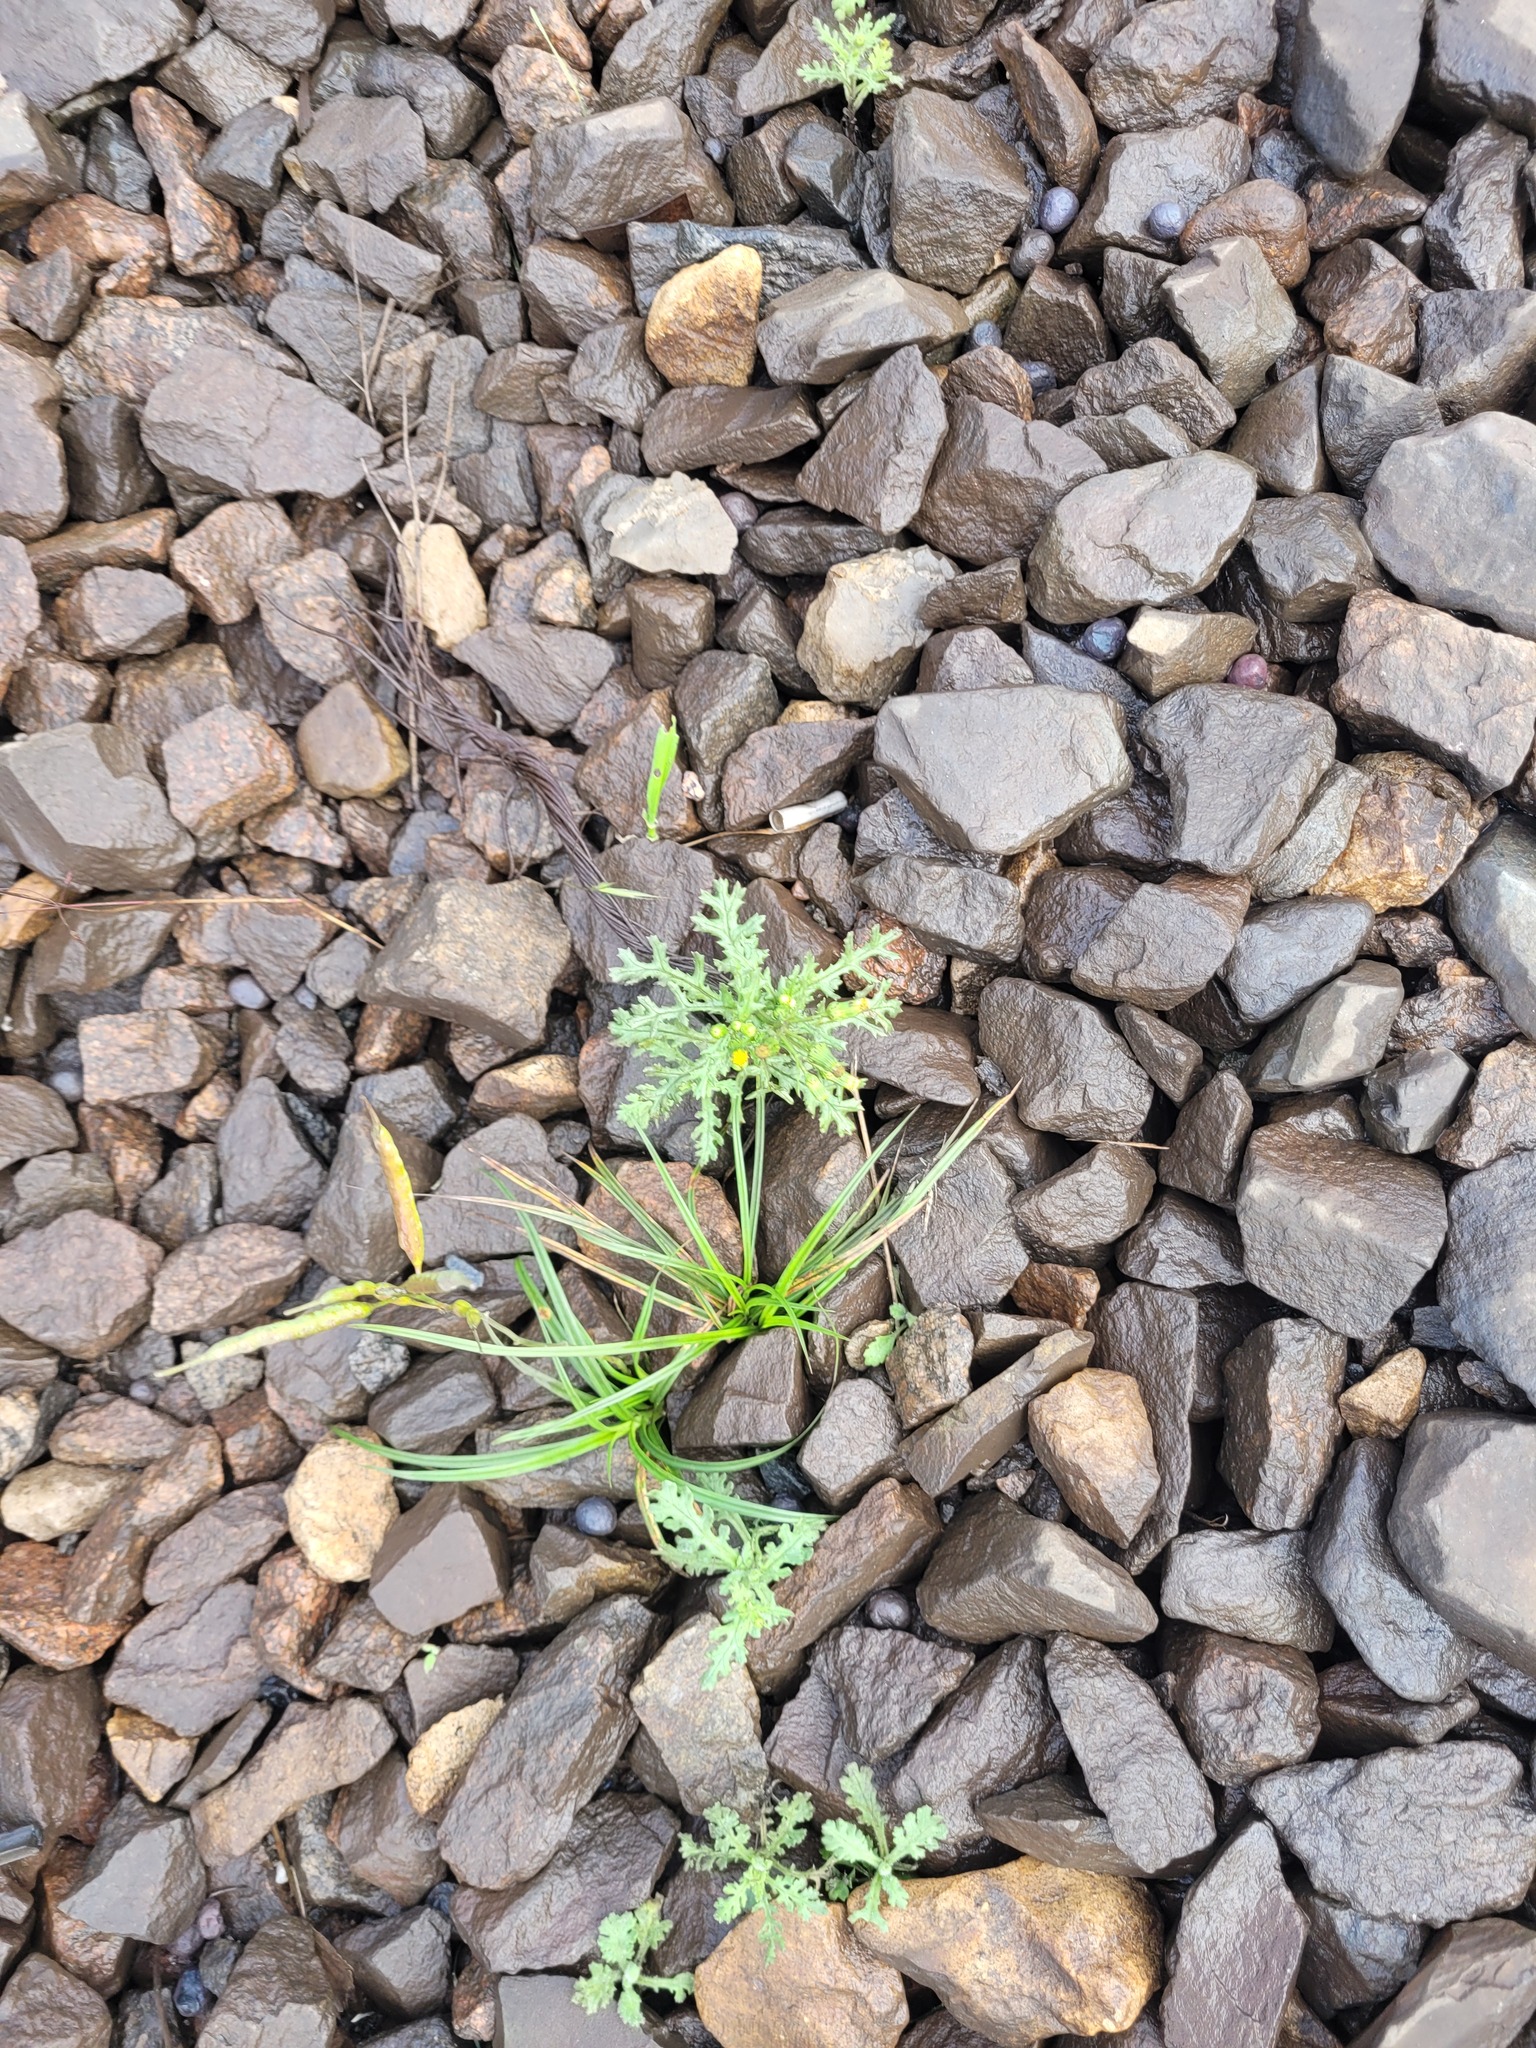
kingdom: Plantae
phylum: Tracheophyta
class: Magnoliopsida
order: Asterales
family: Asteraceae
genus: Senecio
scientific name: Senecio vulgaris
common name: Old-man-in-the-spring
